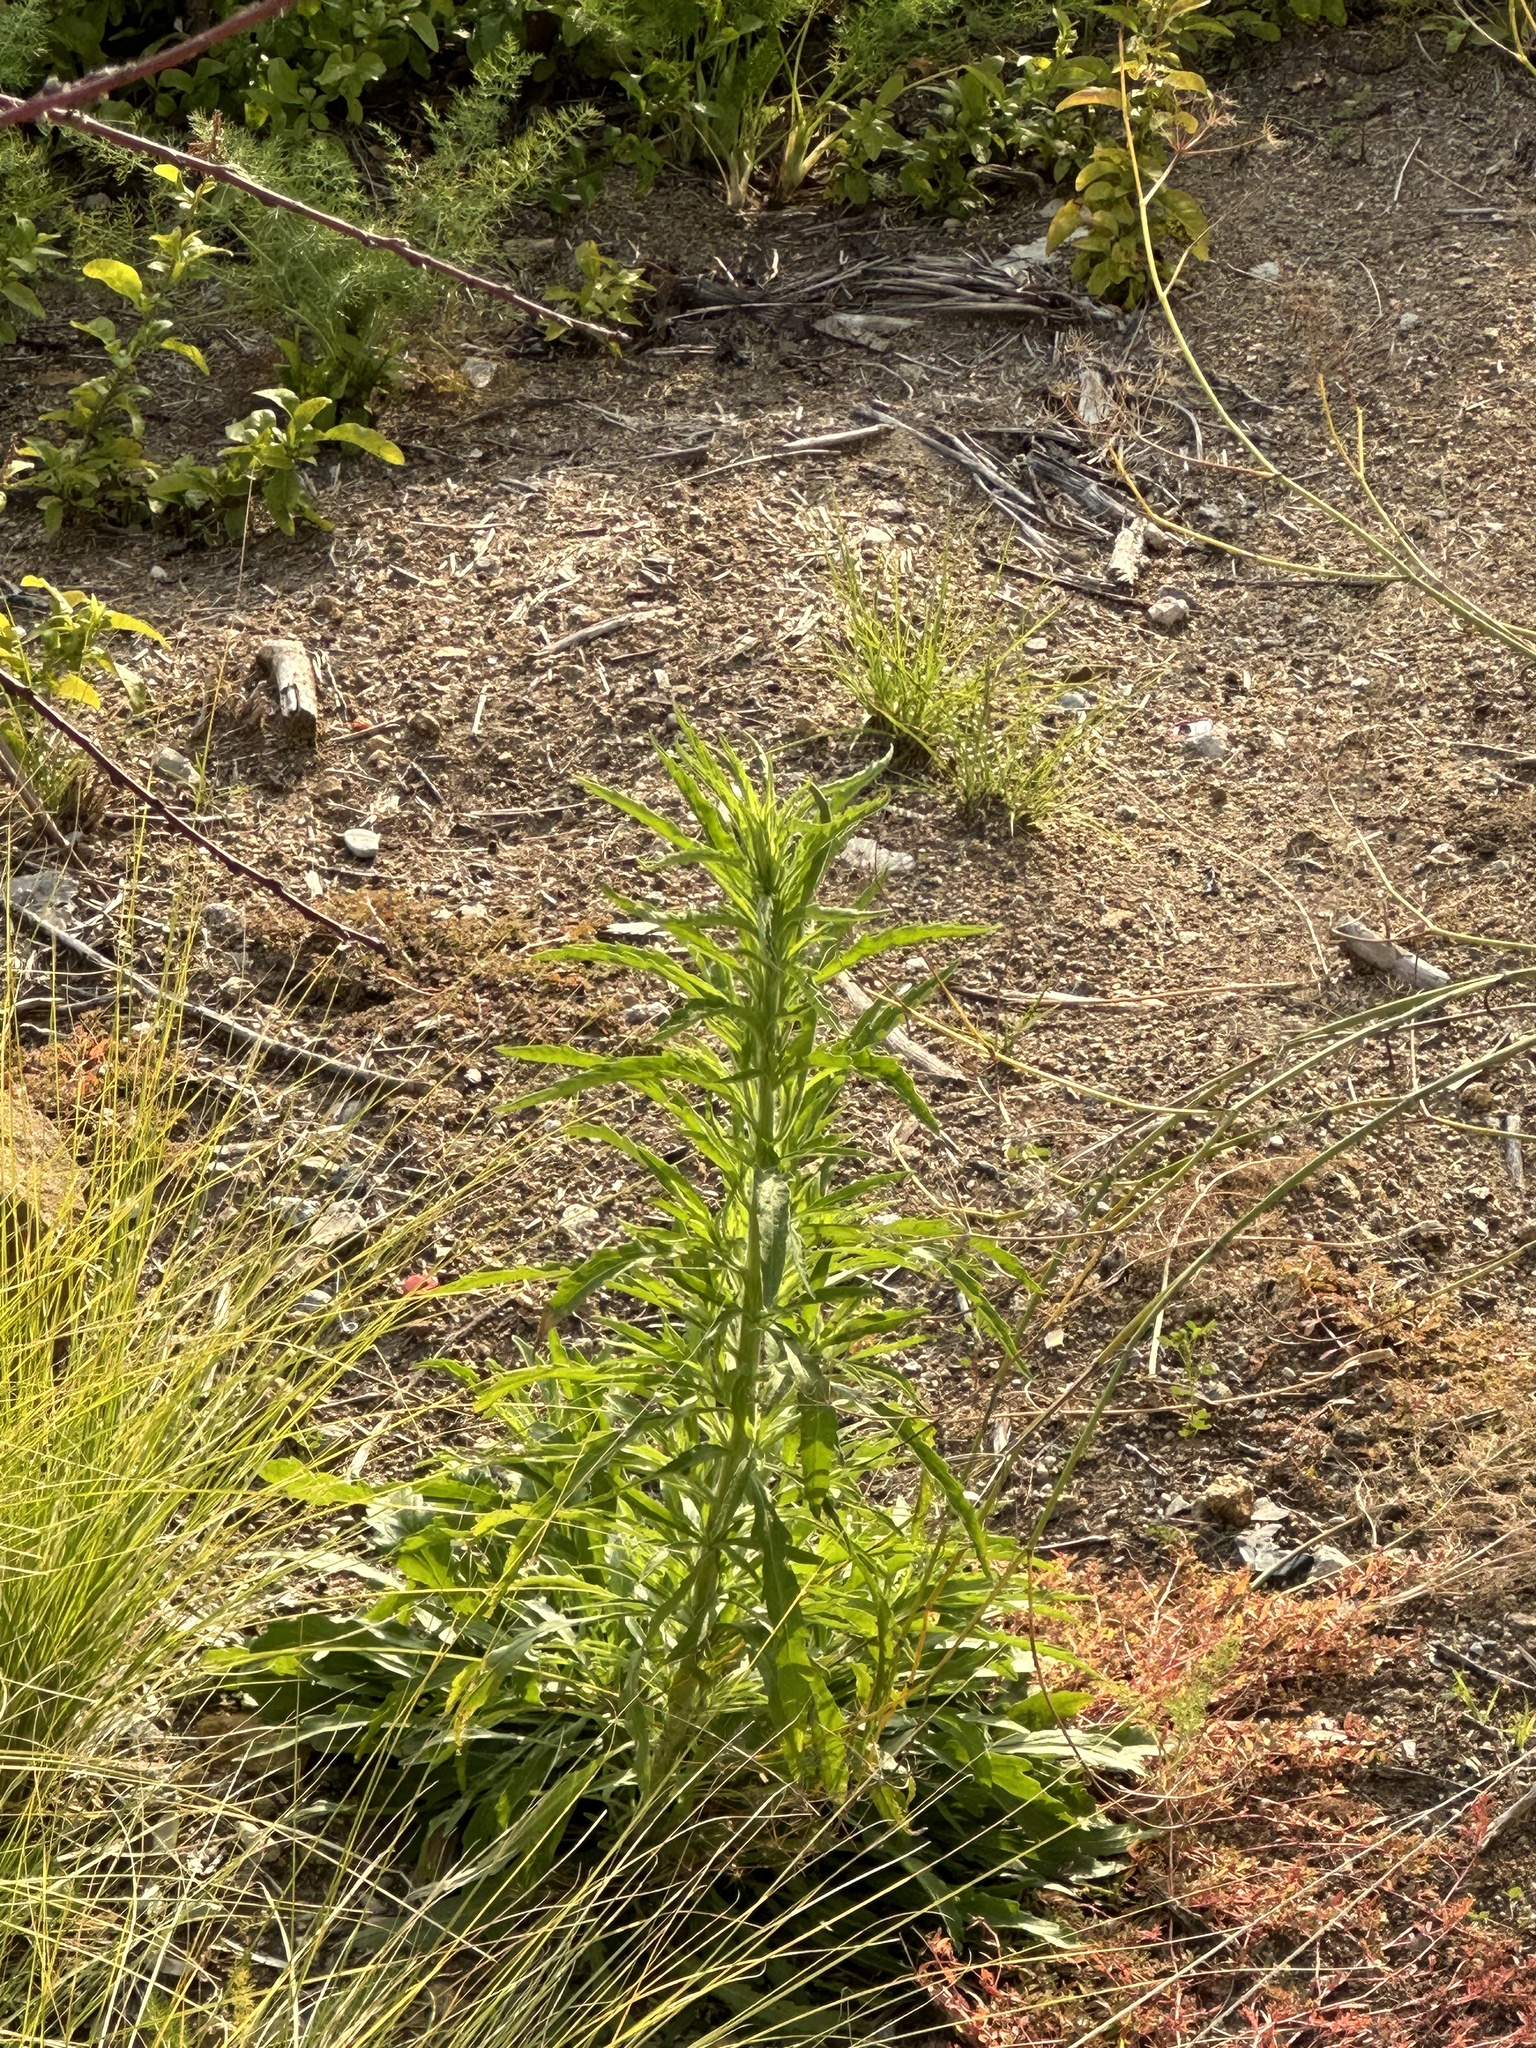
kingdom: Plantae
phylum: Tracheophyta
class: Magnoliopsida
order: Asterales
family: Asteraceae
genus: Erigeron
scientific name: Erigeron canadensis
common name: Canadian fleabane
